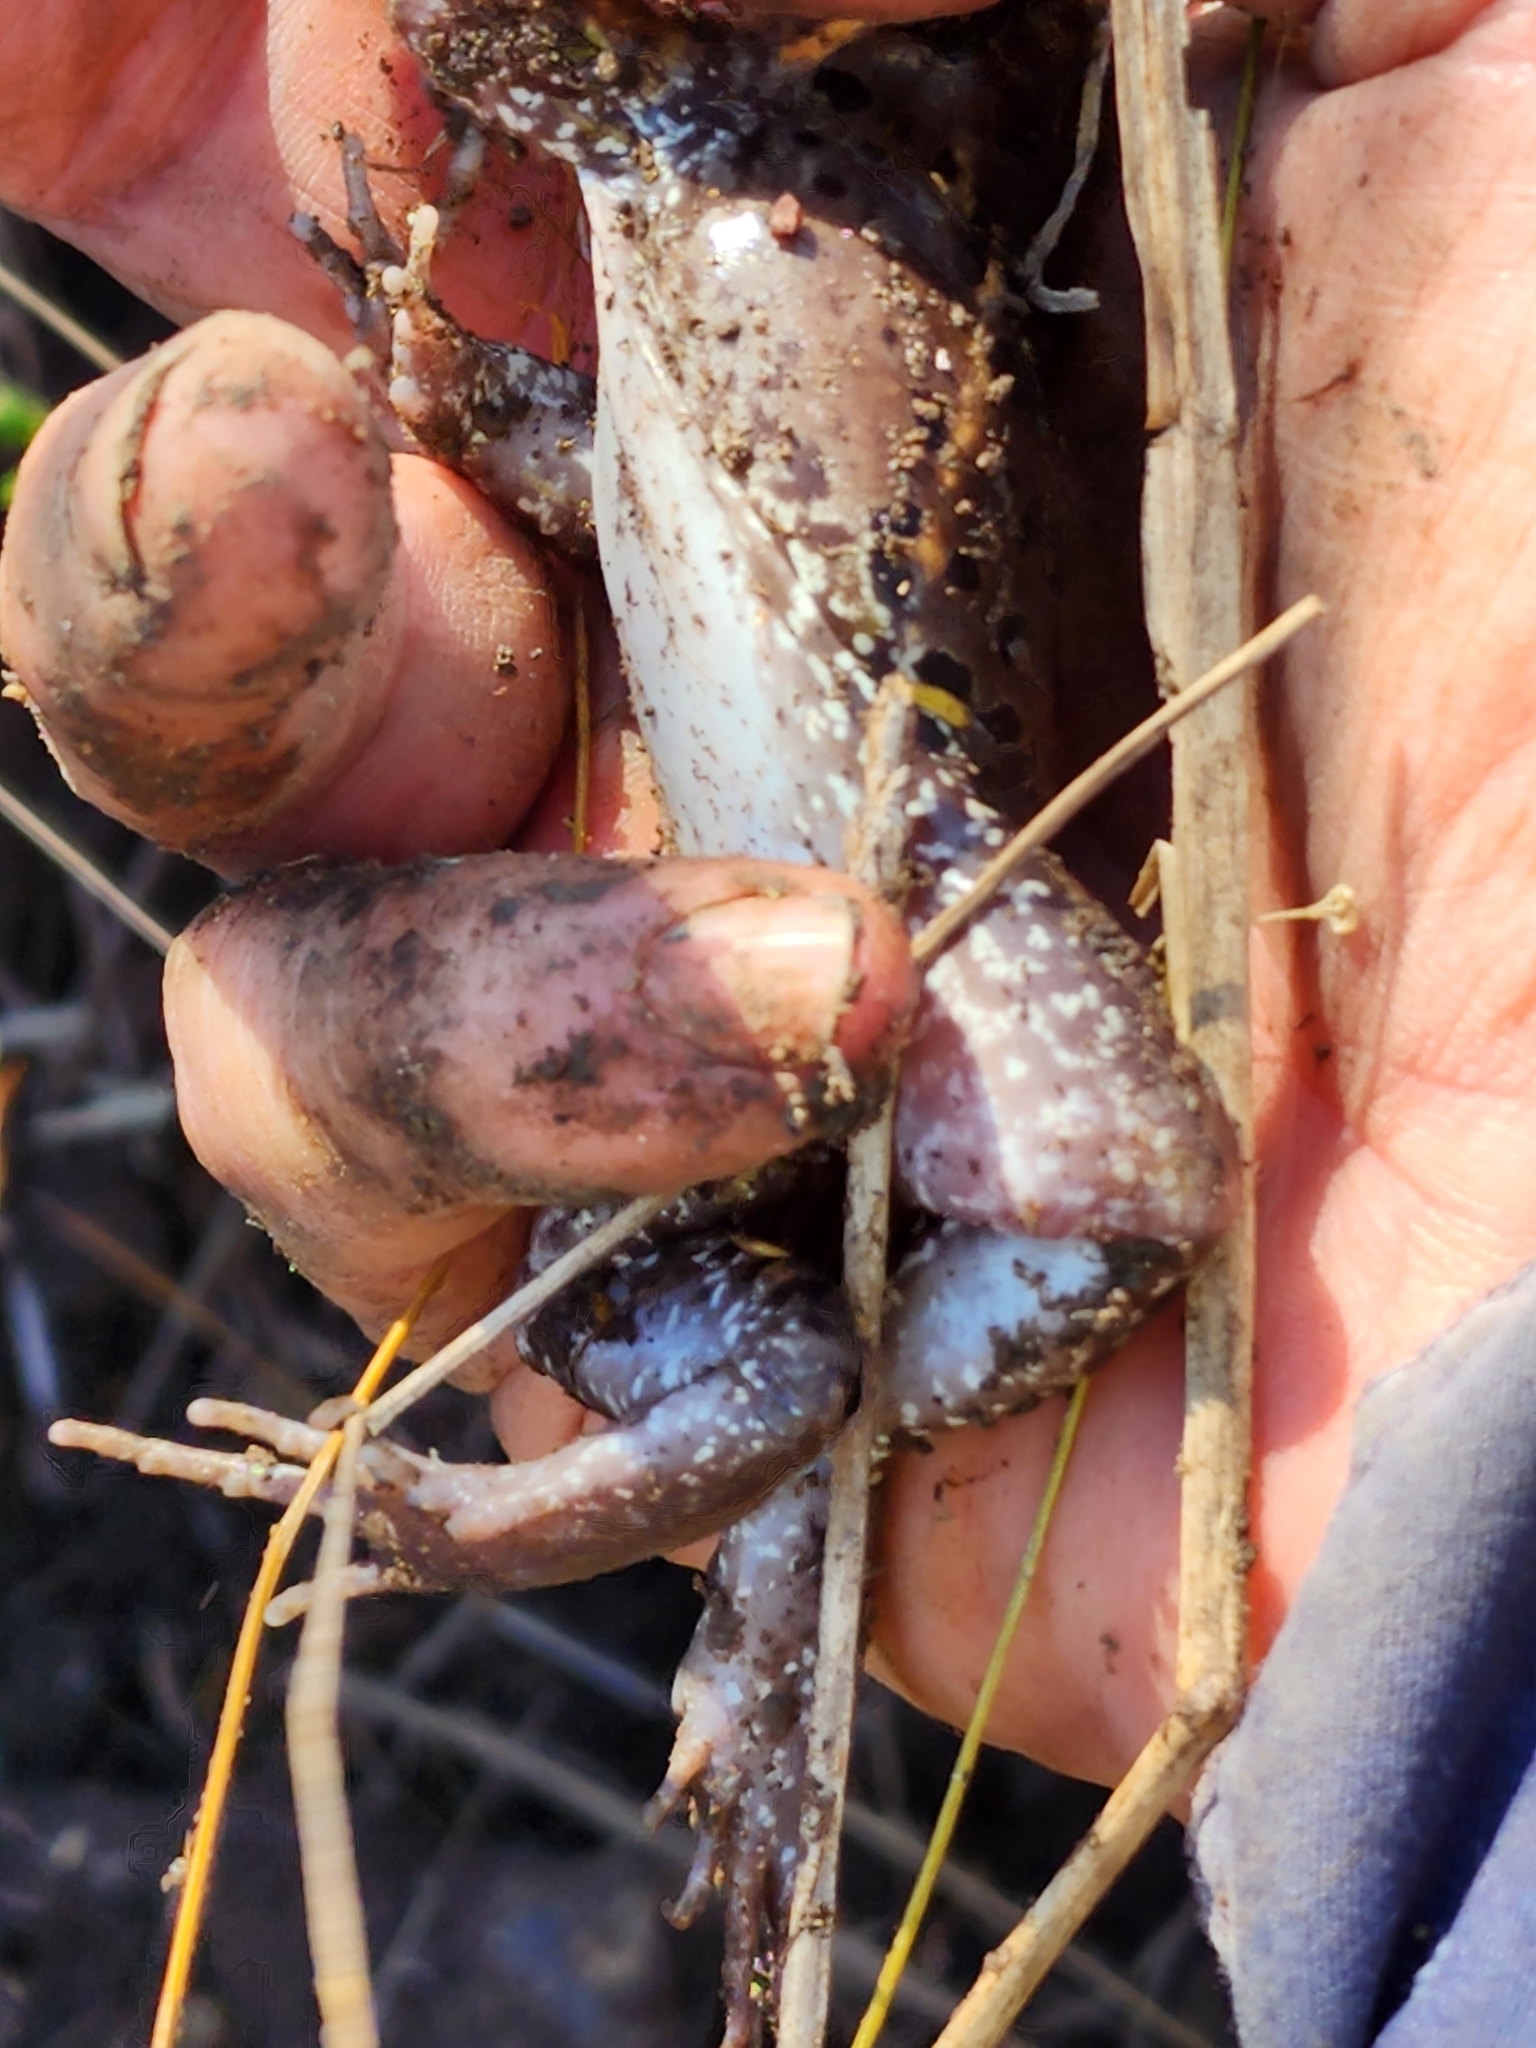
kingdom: Animalia
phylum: Chordata
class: Amphibia
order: Anura
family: Limnodynastidae
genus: Limnodynastes
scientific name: Limnodynastes salmini
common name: Salmon-striped frog
